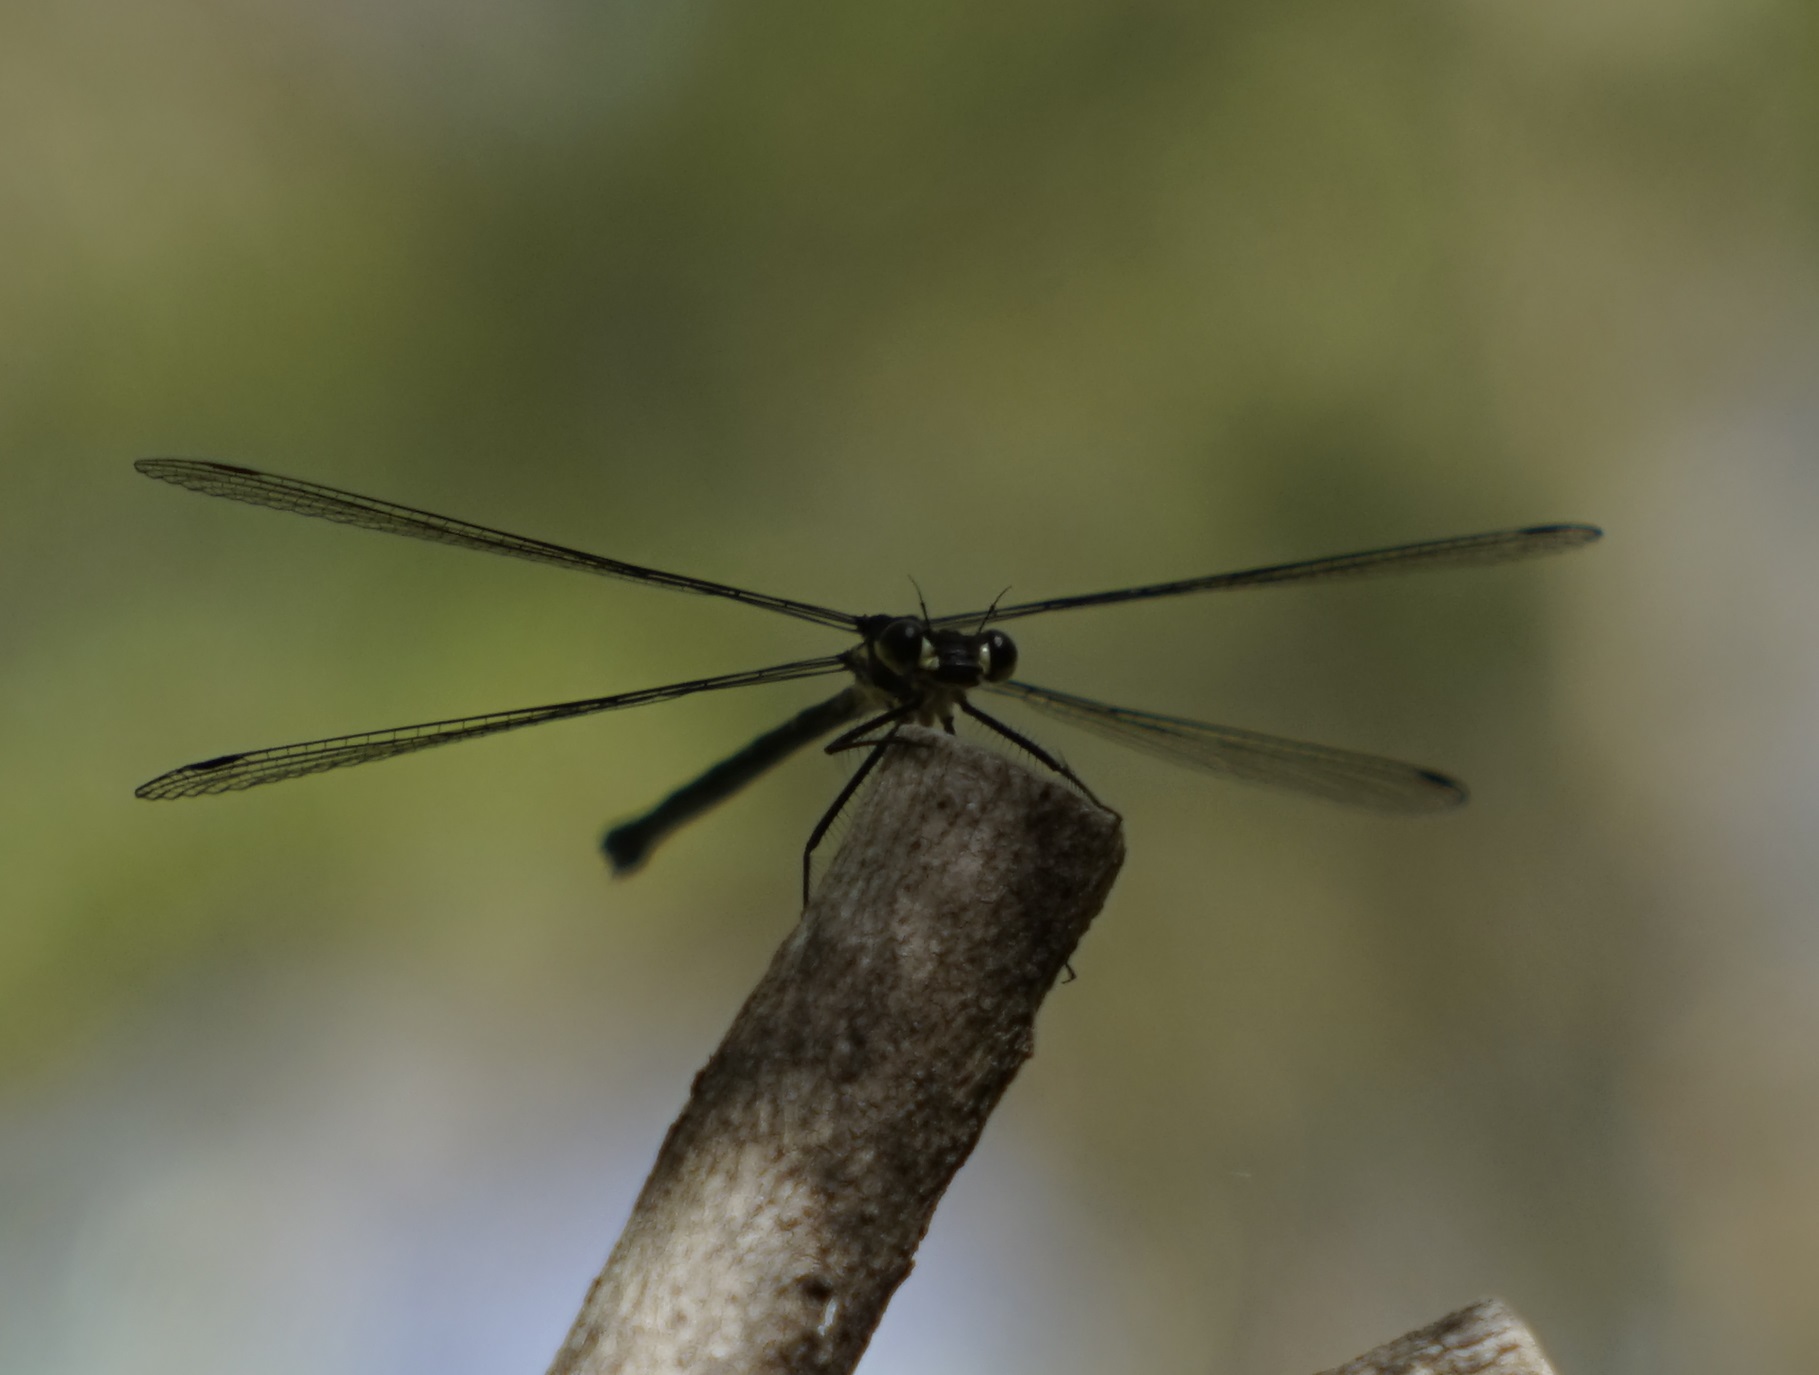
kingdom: Animalia
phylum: Arthropoda
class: Insecta
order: Odonata
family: Argiolestidae
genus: Austroargiolestes
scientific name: Austroargiolestes isabellae
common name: Sydney flatwing
